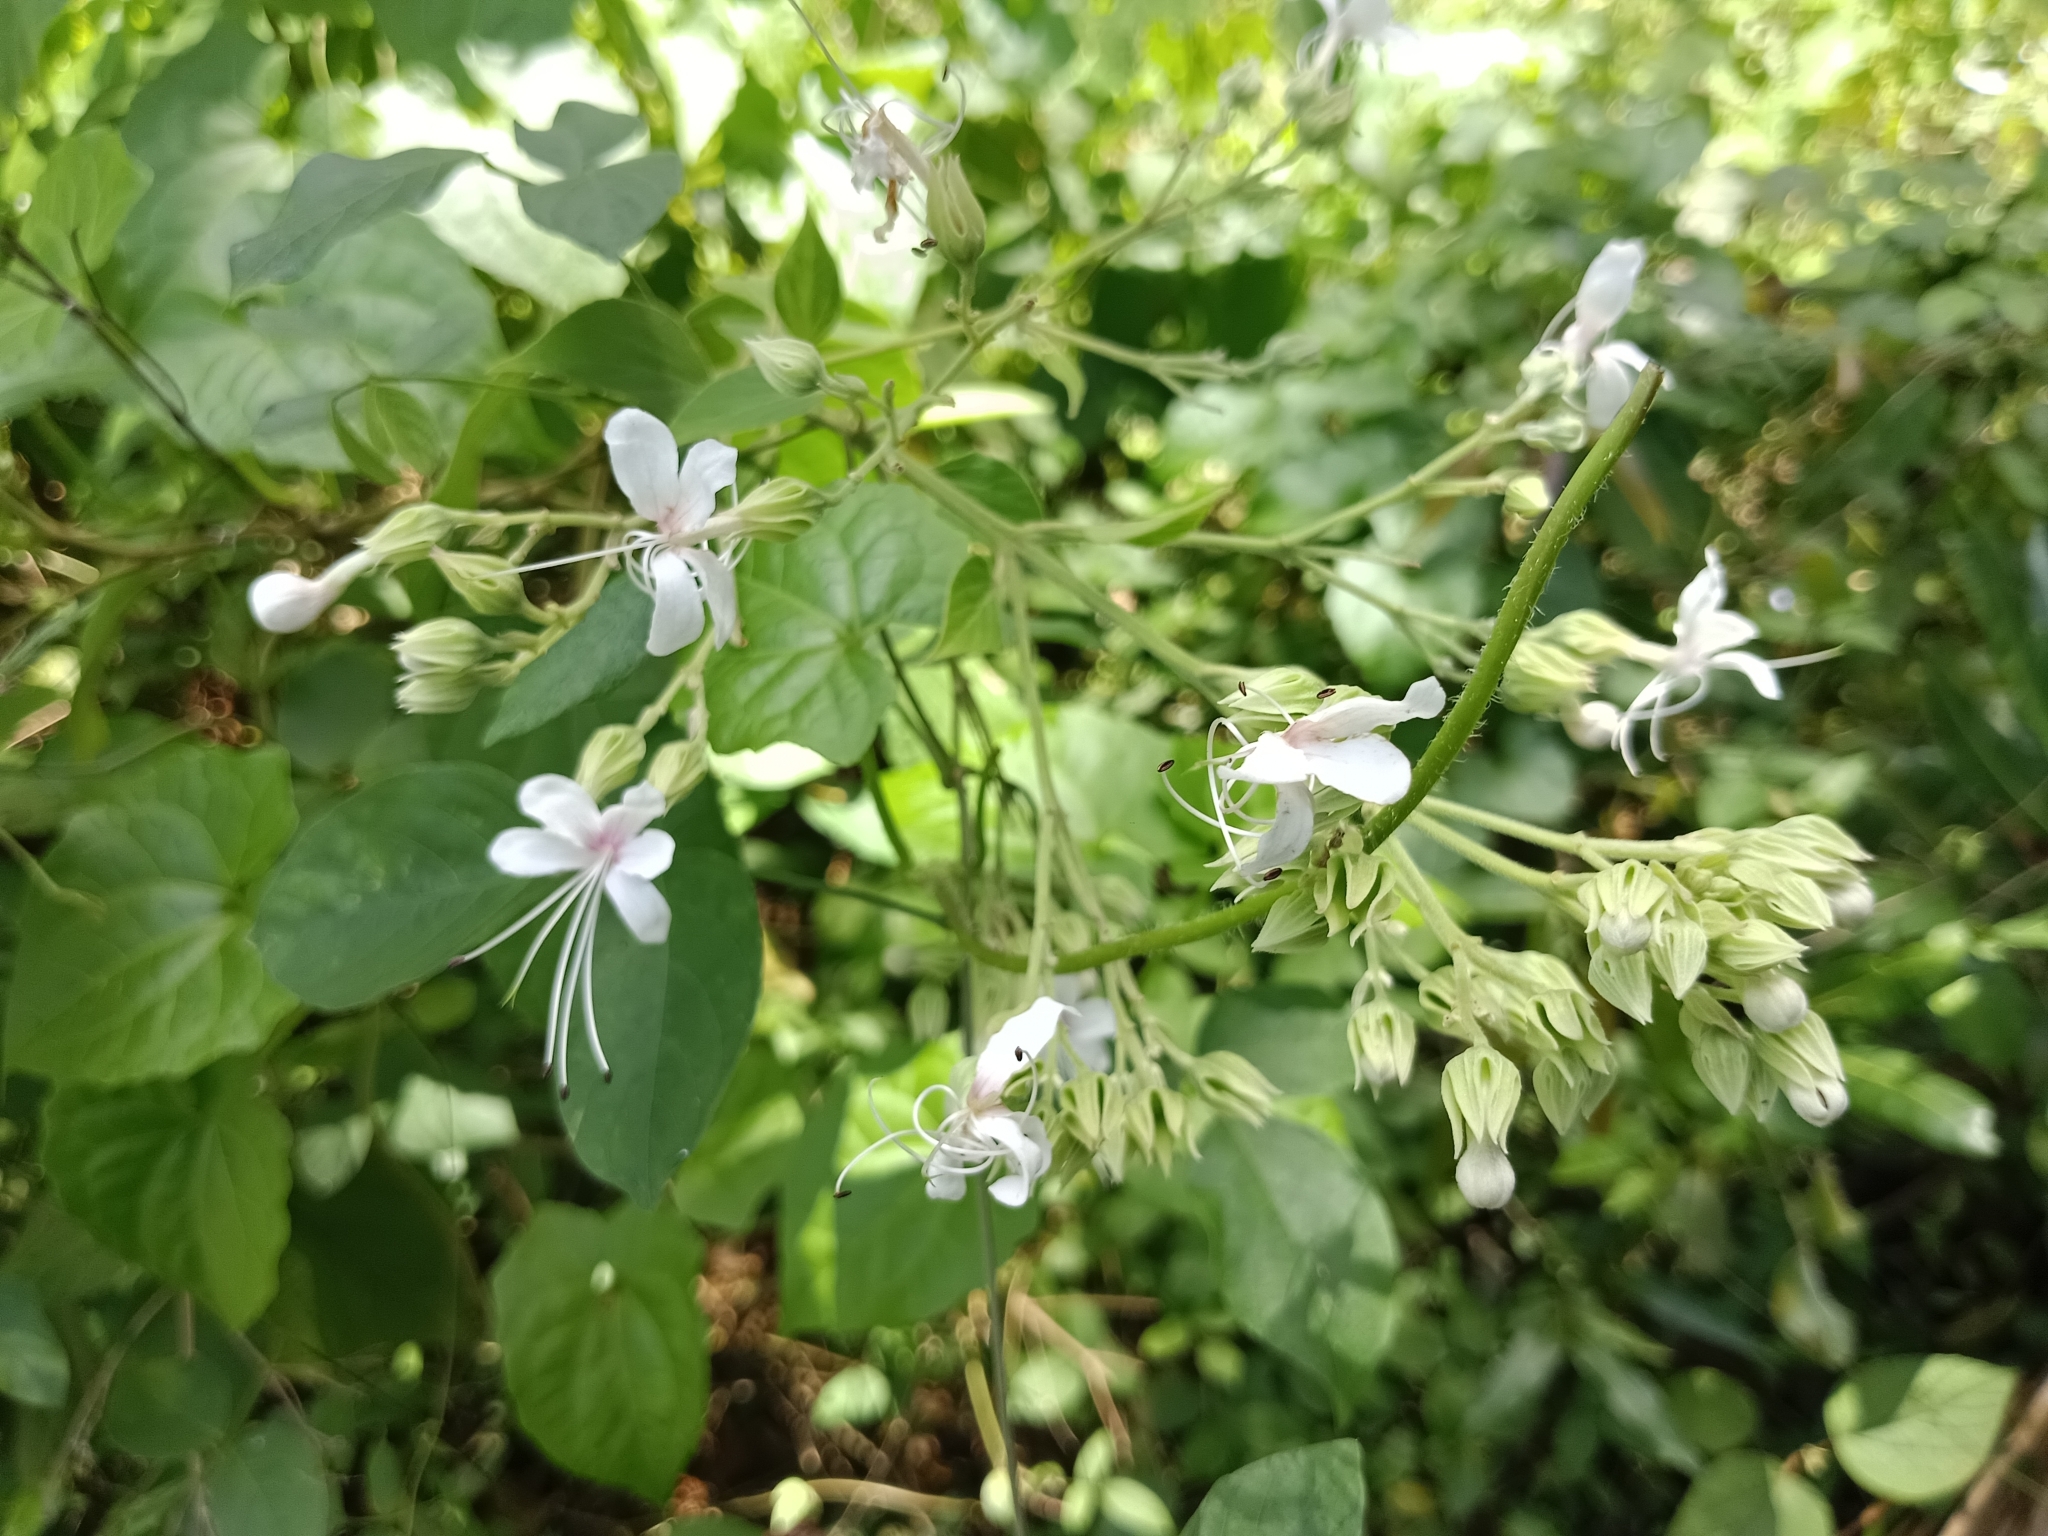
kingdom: Plantae
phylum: Tracheophyta
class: Magnoliopsida
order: Lamiales
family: Lamiaceae
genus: Clerodendrum
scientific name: Clerodendrum infortunatum
